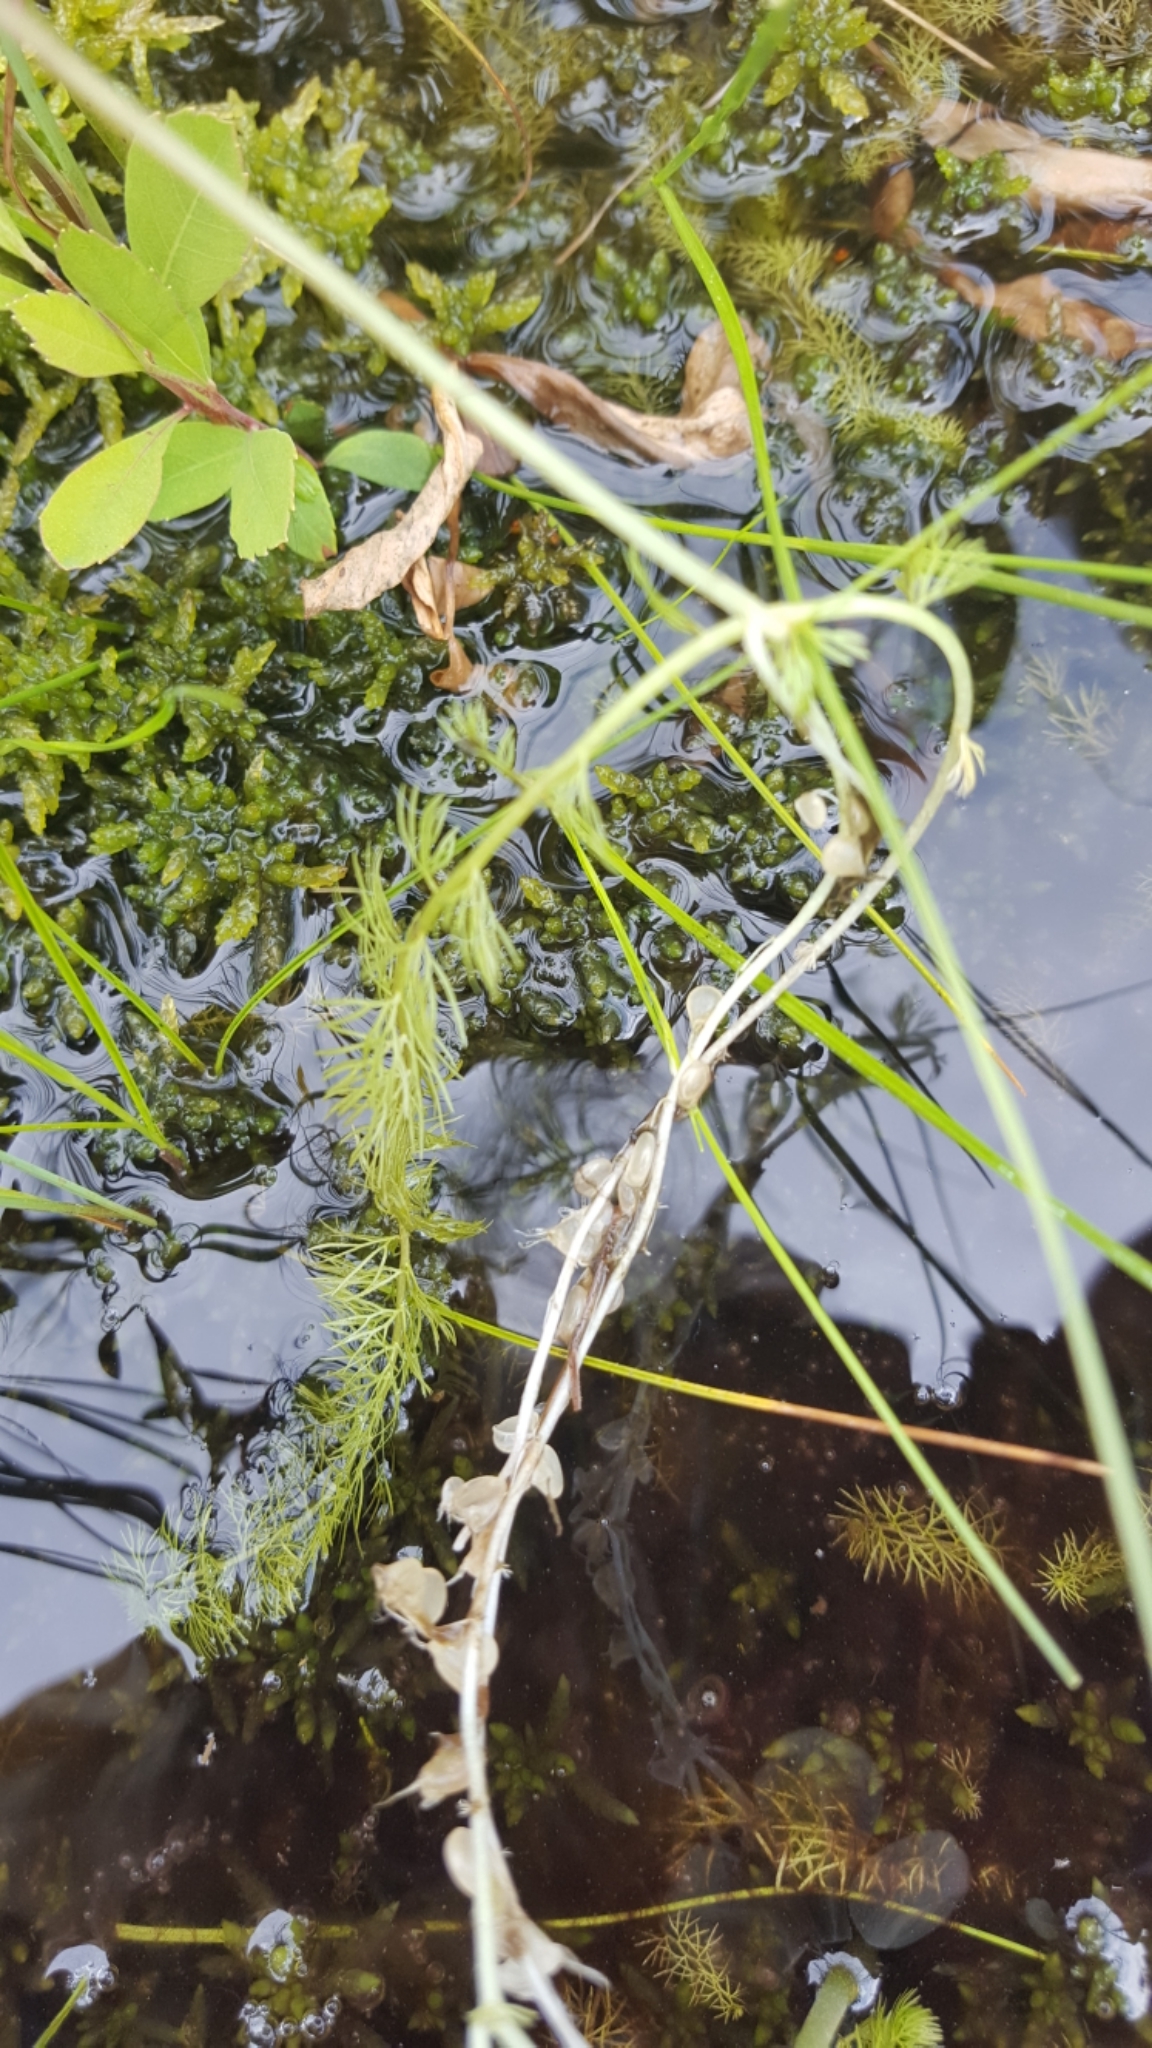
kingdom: Plantae
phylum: Tracheophyta
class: Magnoliopsida
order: Lamiales
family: Lentibulariaceae
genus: Utricularia
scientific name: Utricularia intermedia
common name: Intermediate bladderwort
